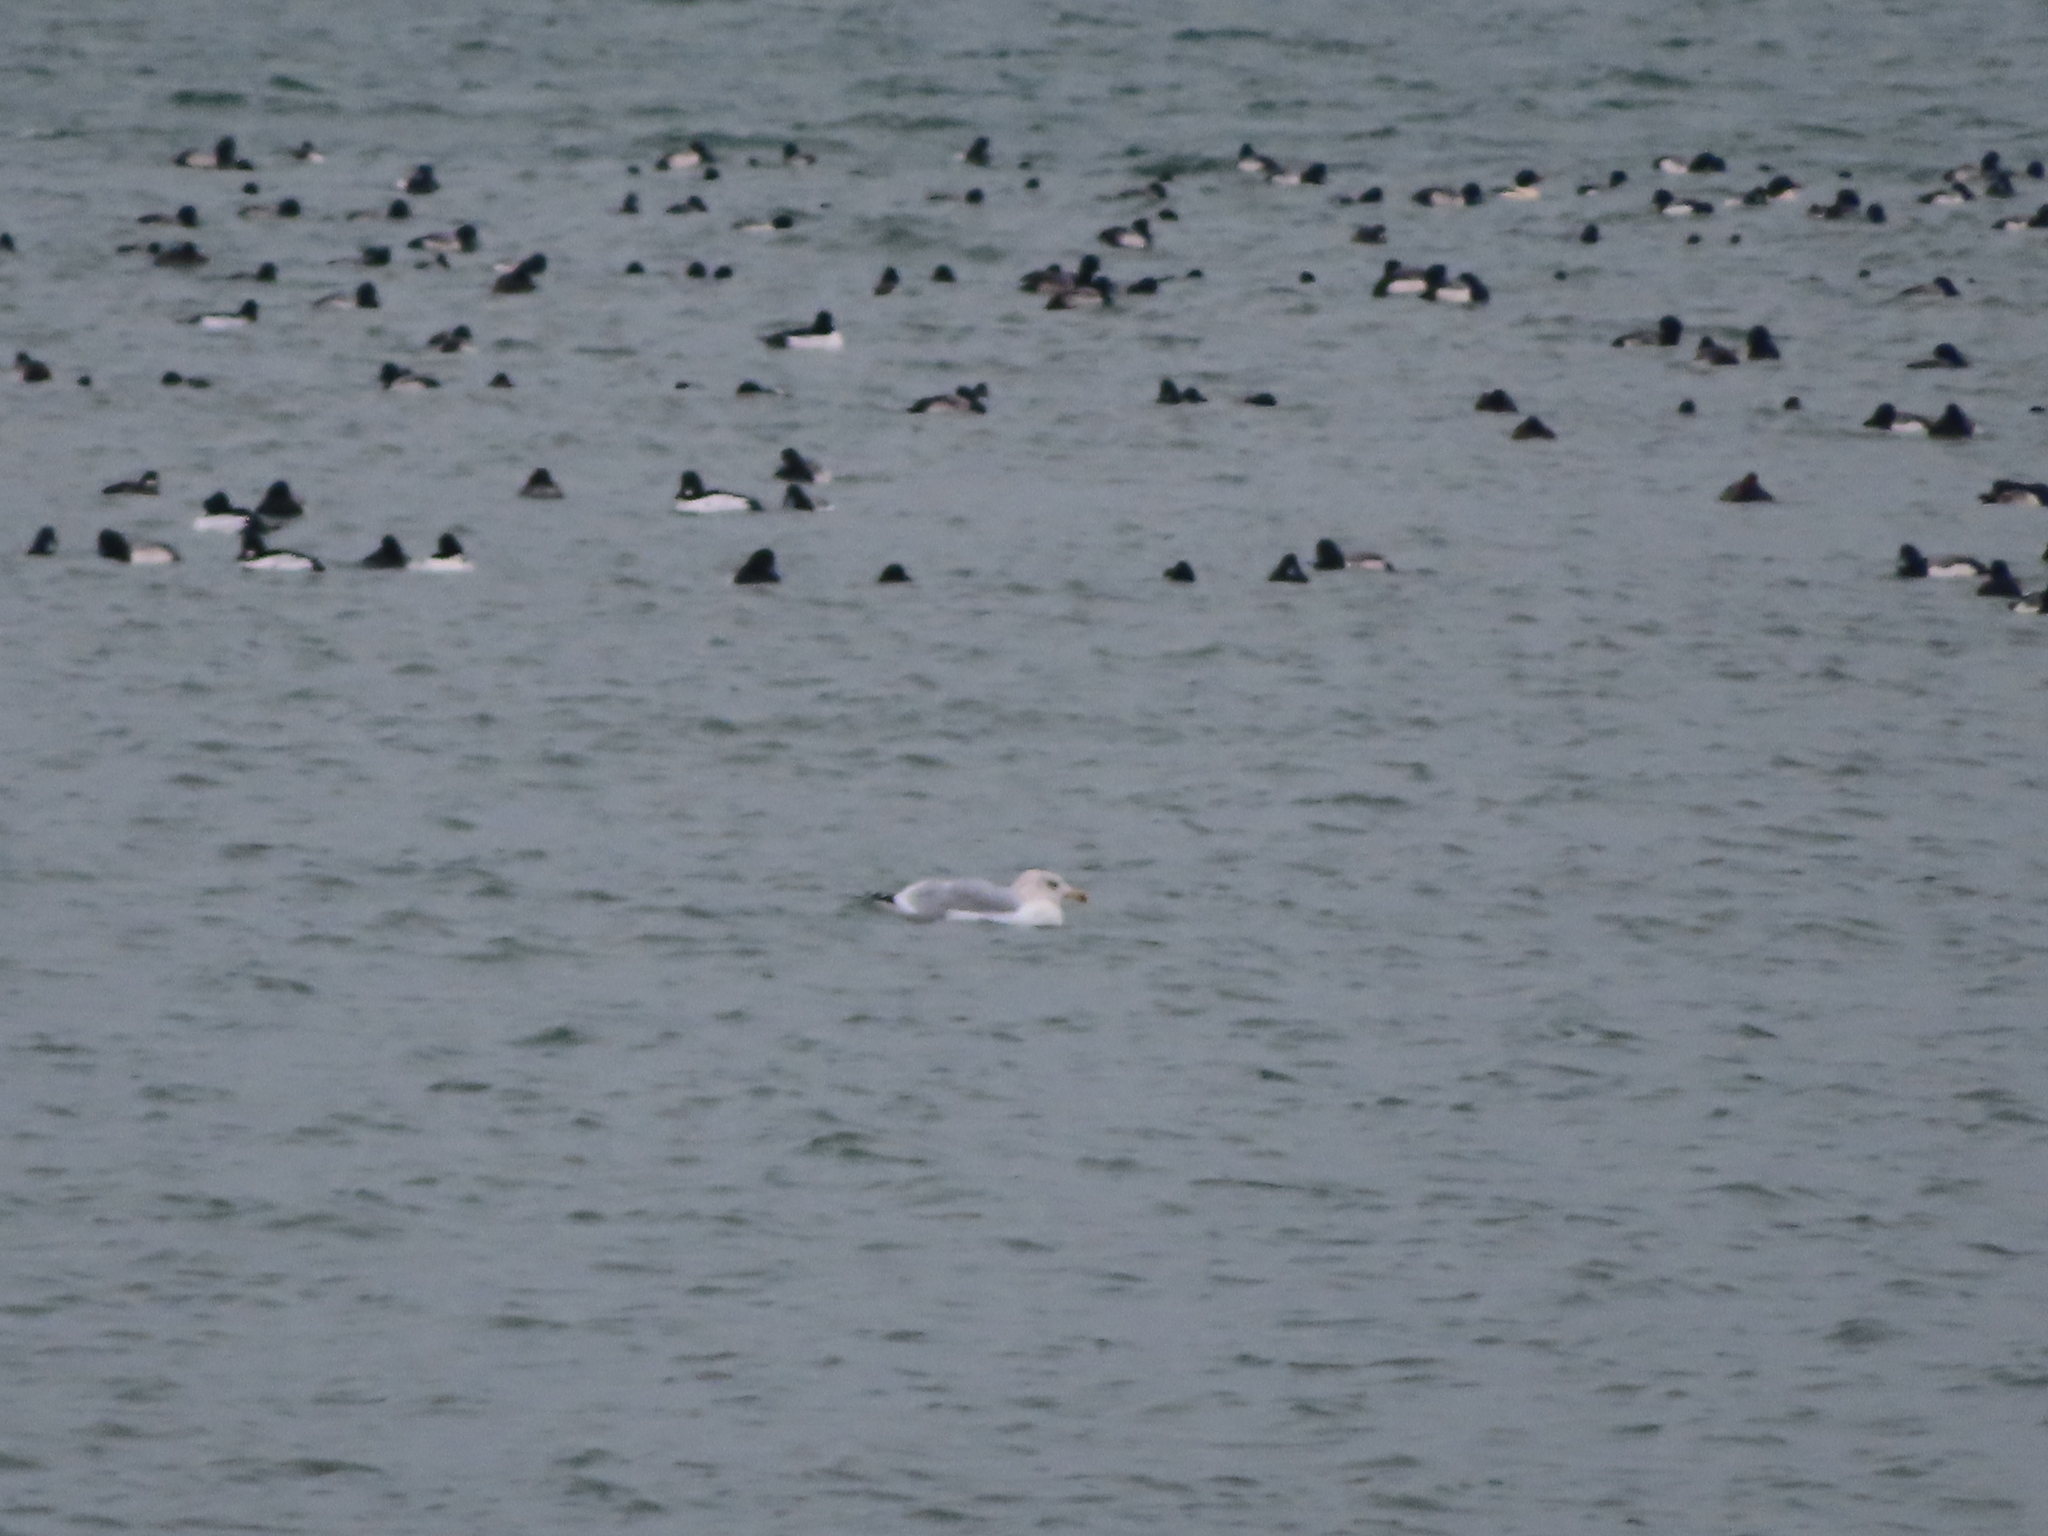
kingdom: Animalia
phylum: Chordata
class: Aves
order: Charadriiformes
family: Laridae
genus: Larus
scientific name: Larus argentatus
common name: Herring gull
